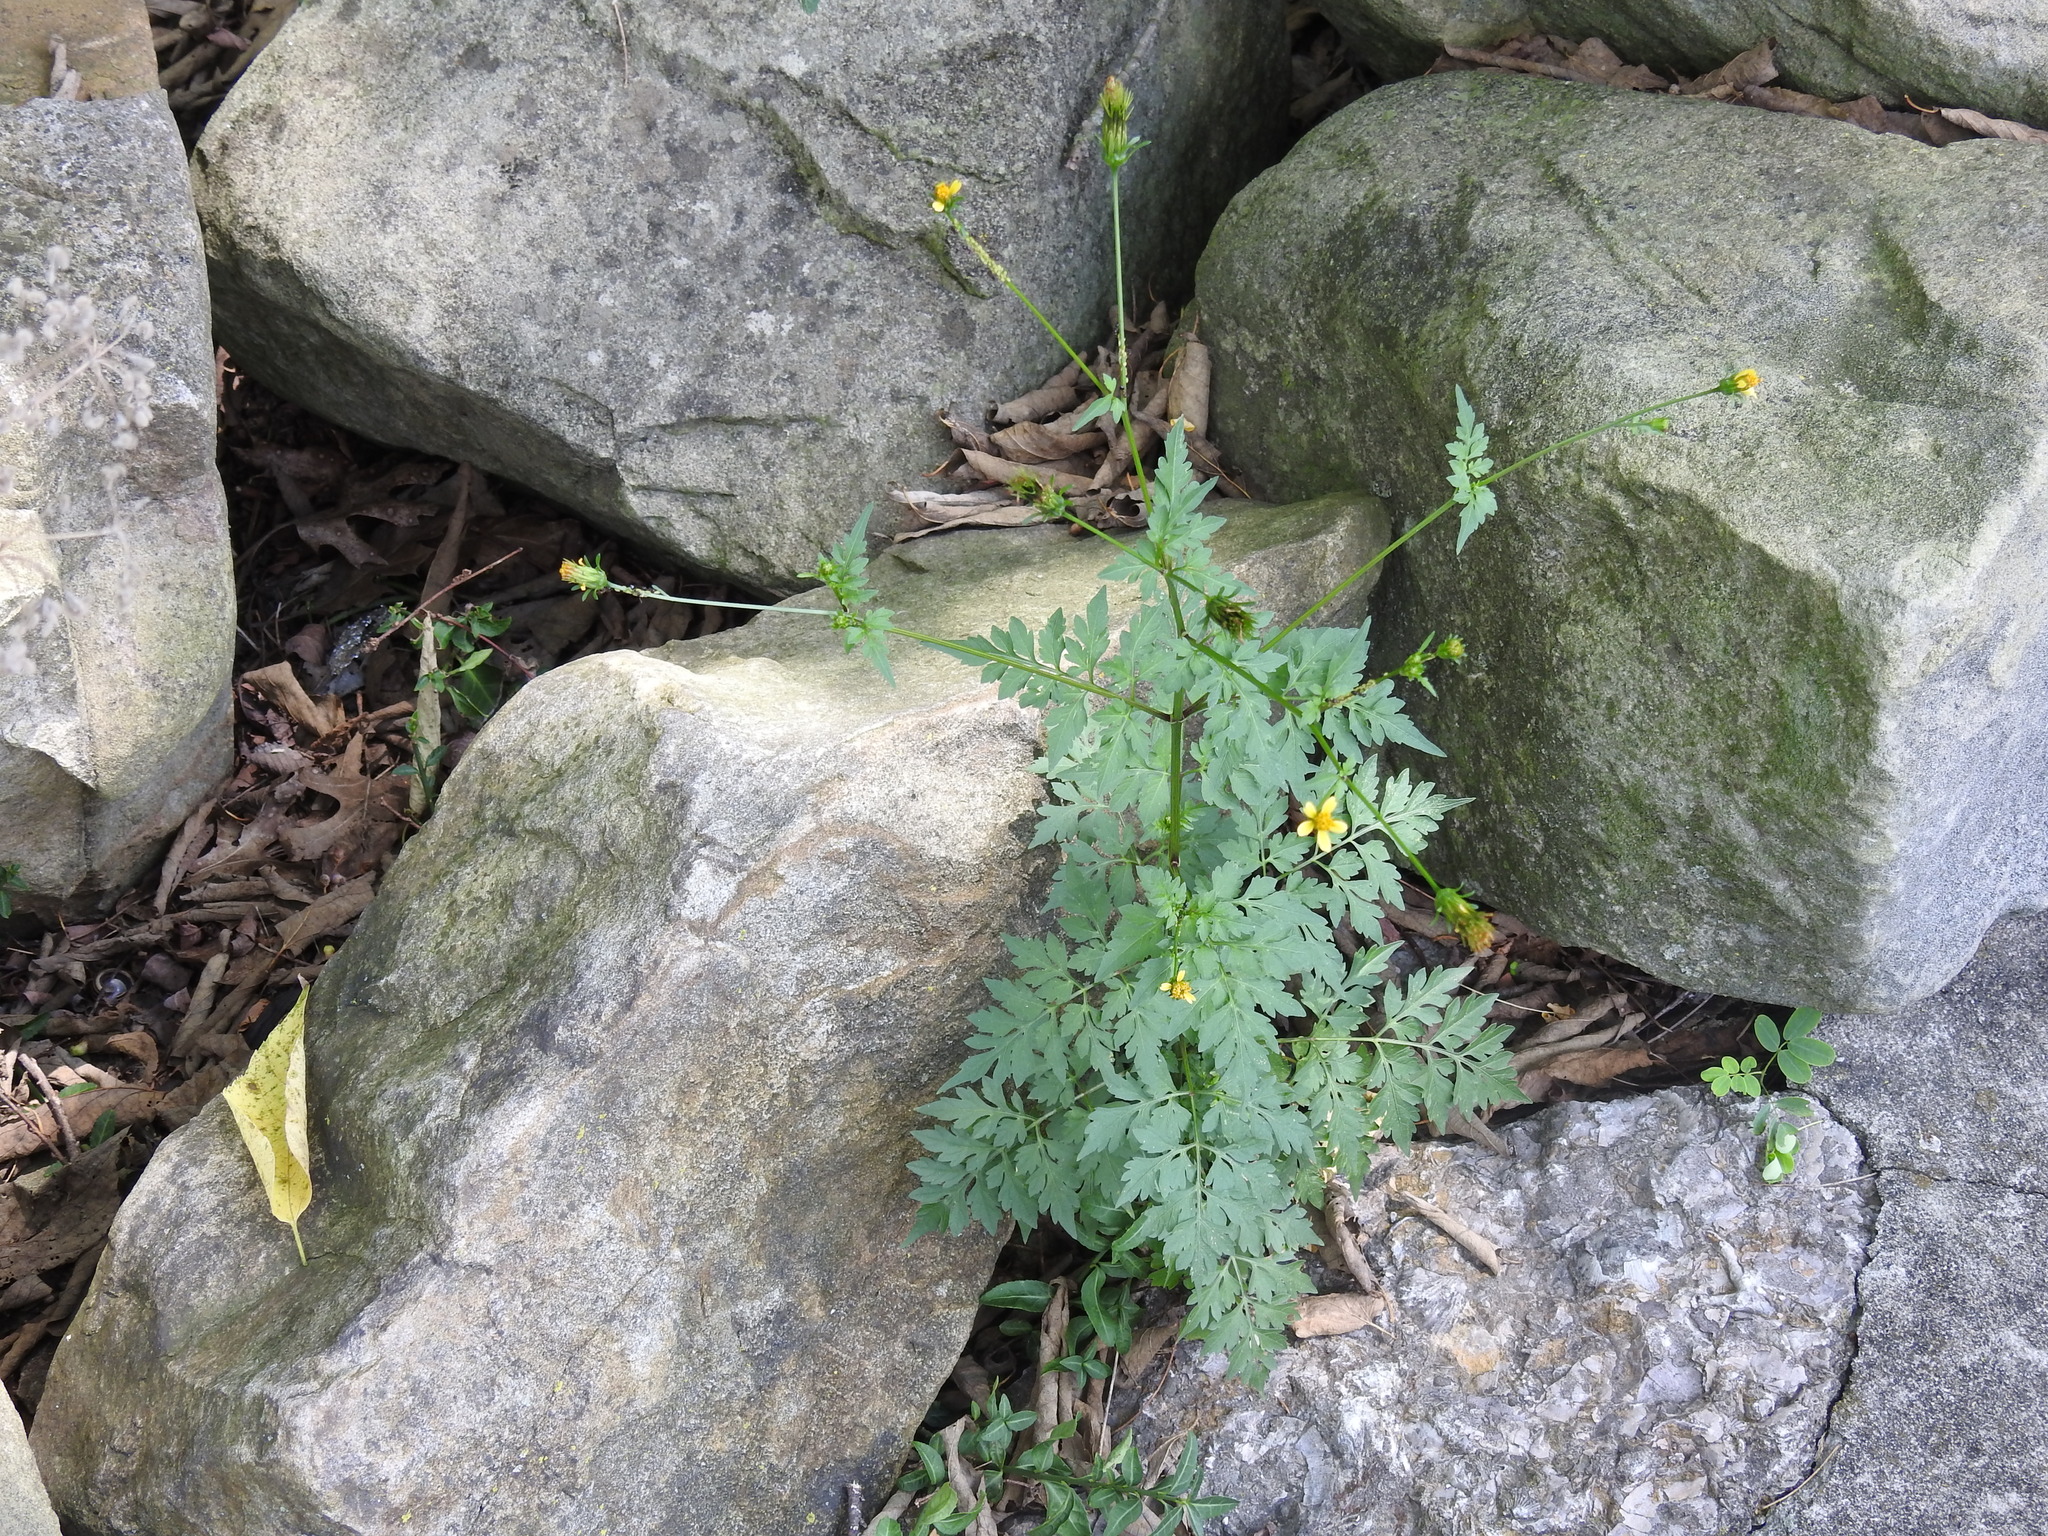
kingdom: Plantae
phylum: Tracheophyta
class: Magnoliopsida
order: Asterales
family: Asteraceae
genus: Bidens
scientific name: Bidens bipinnata
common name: Spanish-needles
